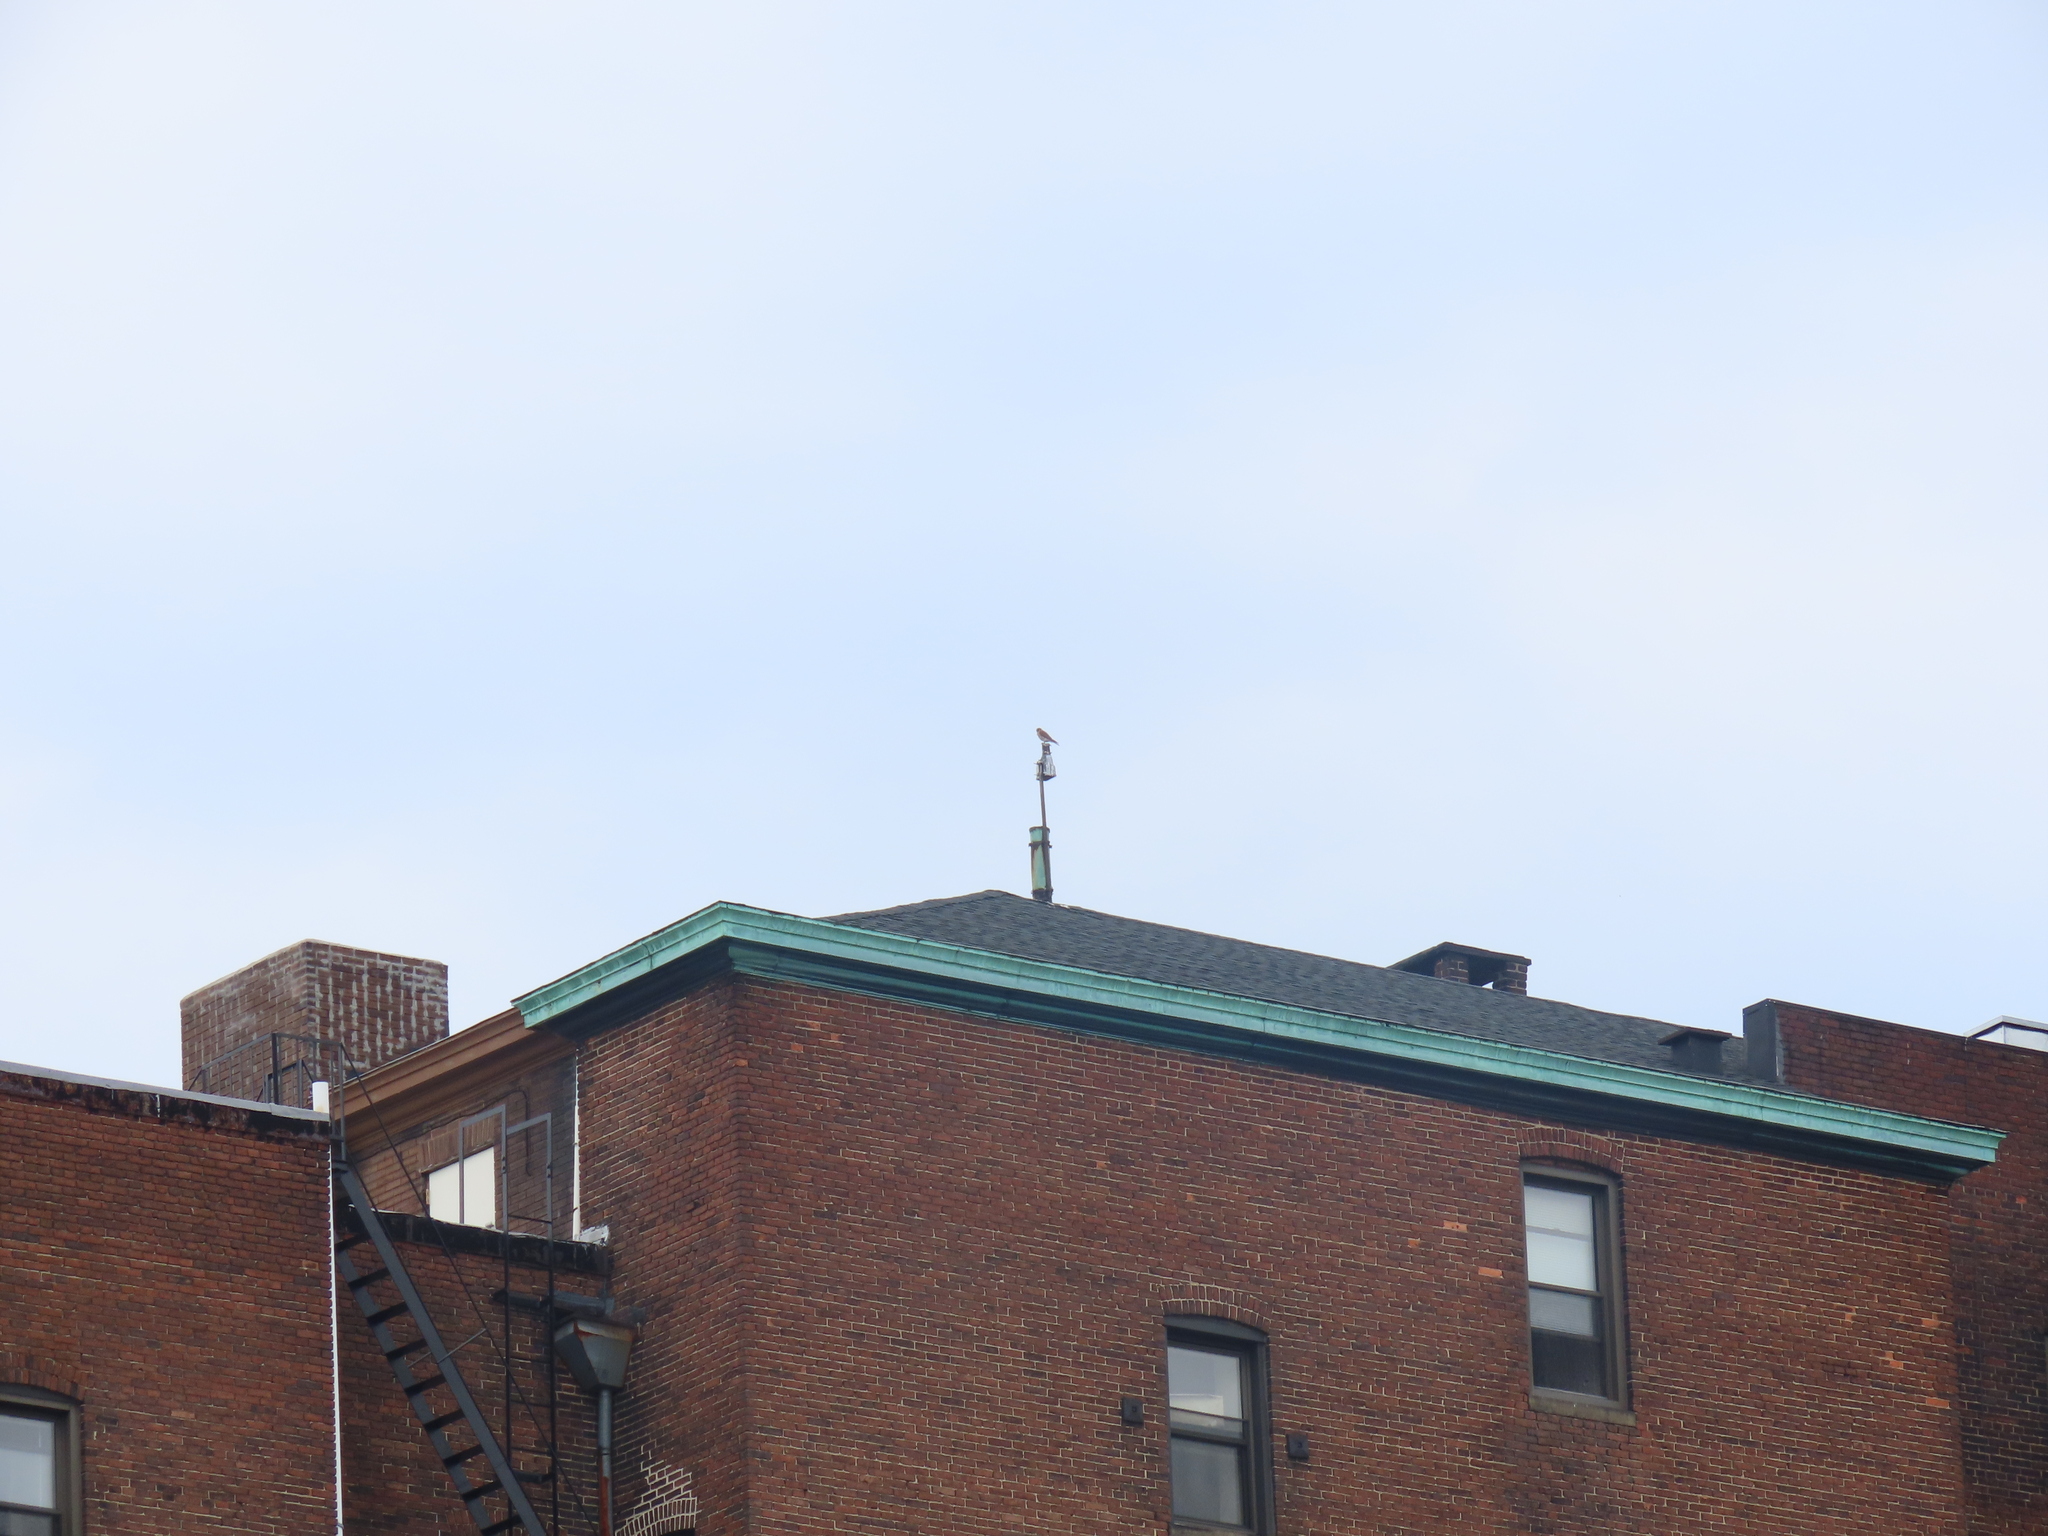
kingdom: Animalia
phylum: Chordata
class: Aves
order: Falconiformes
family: Falconidae
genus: Falco
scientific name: Falco sparverius
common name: American kestrel
